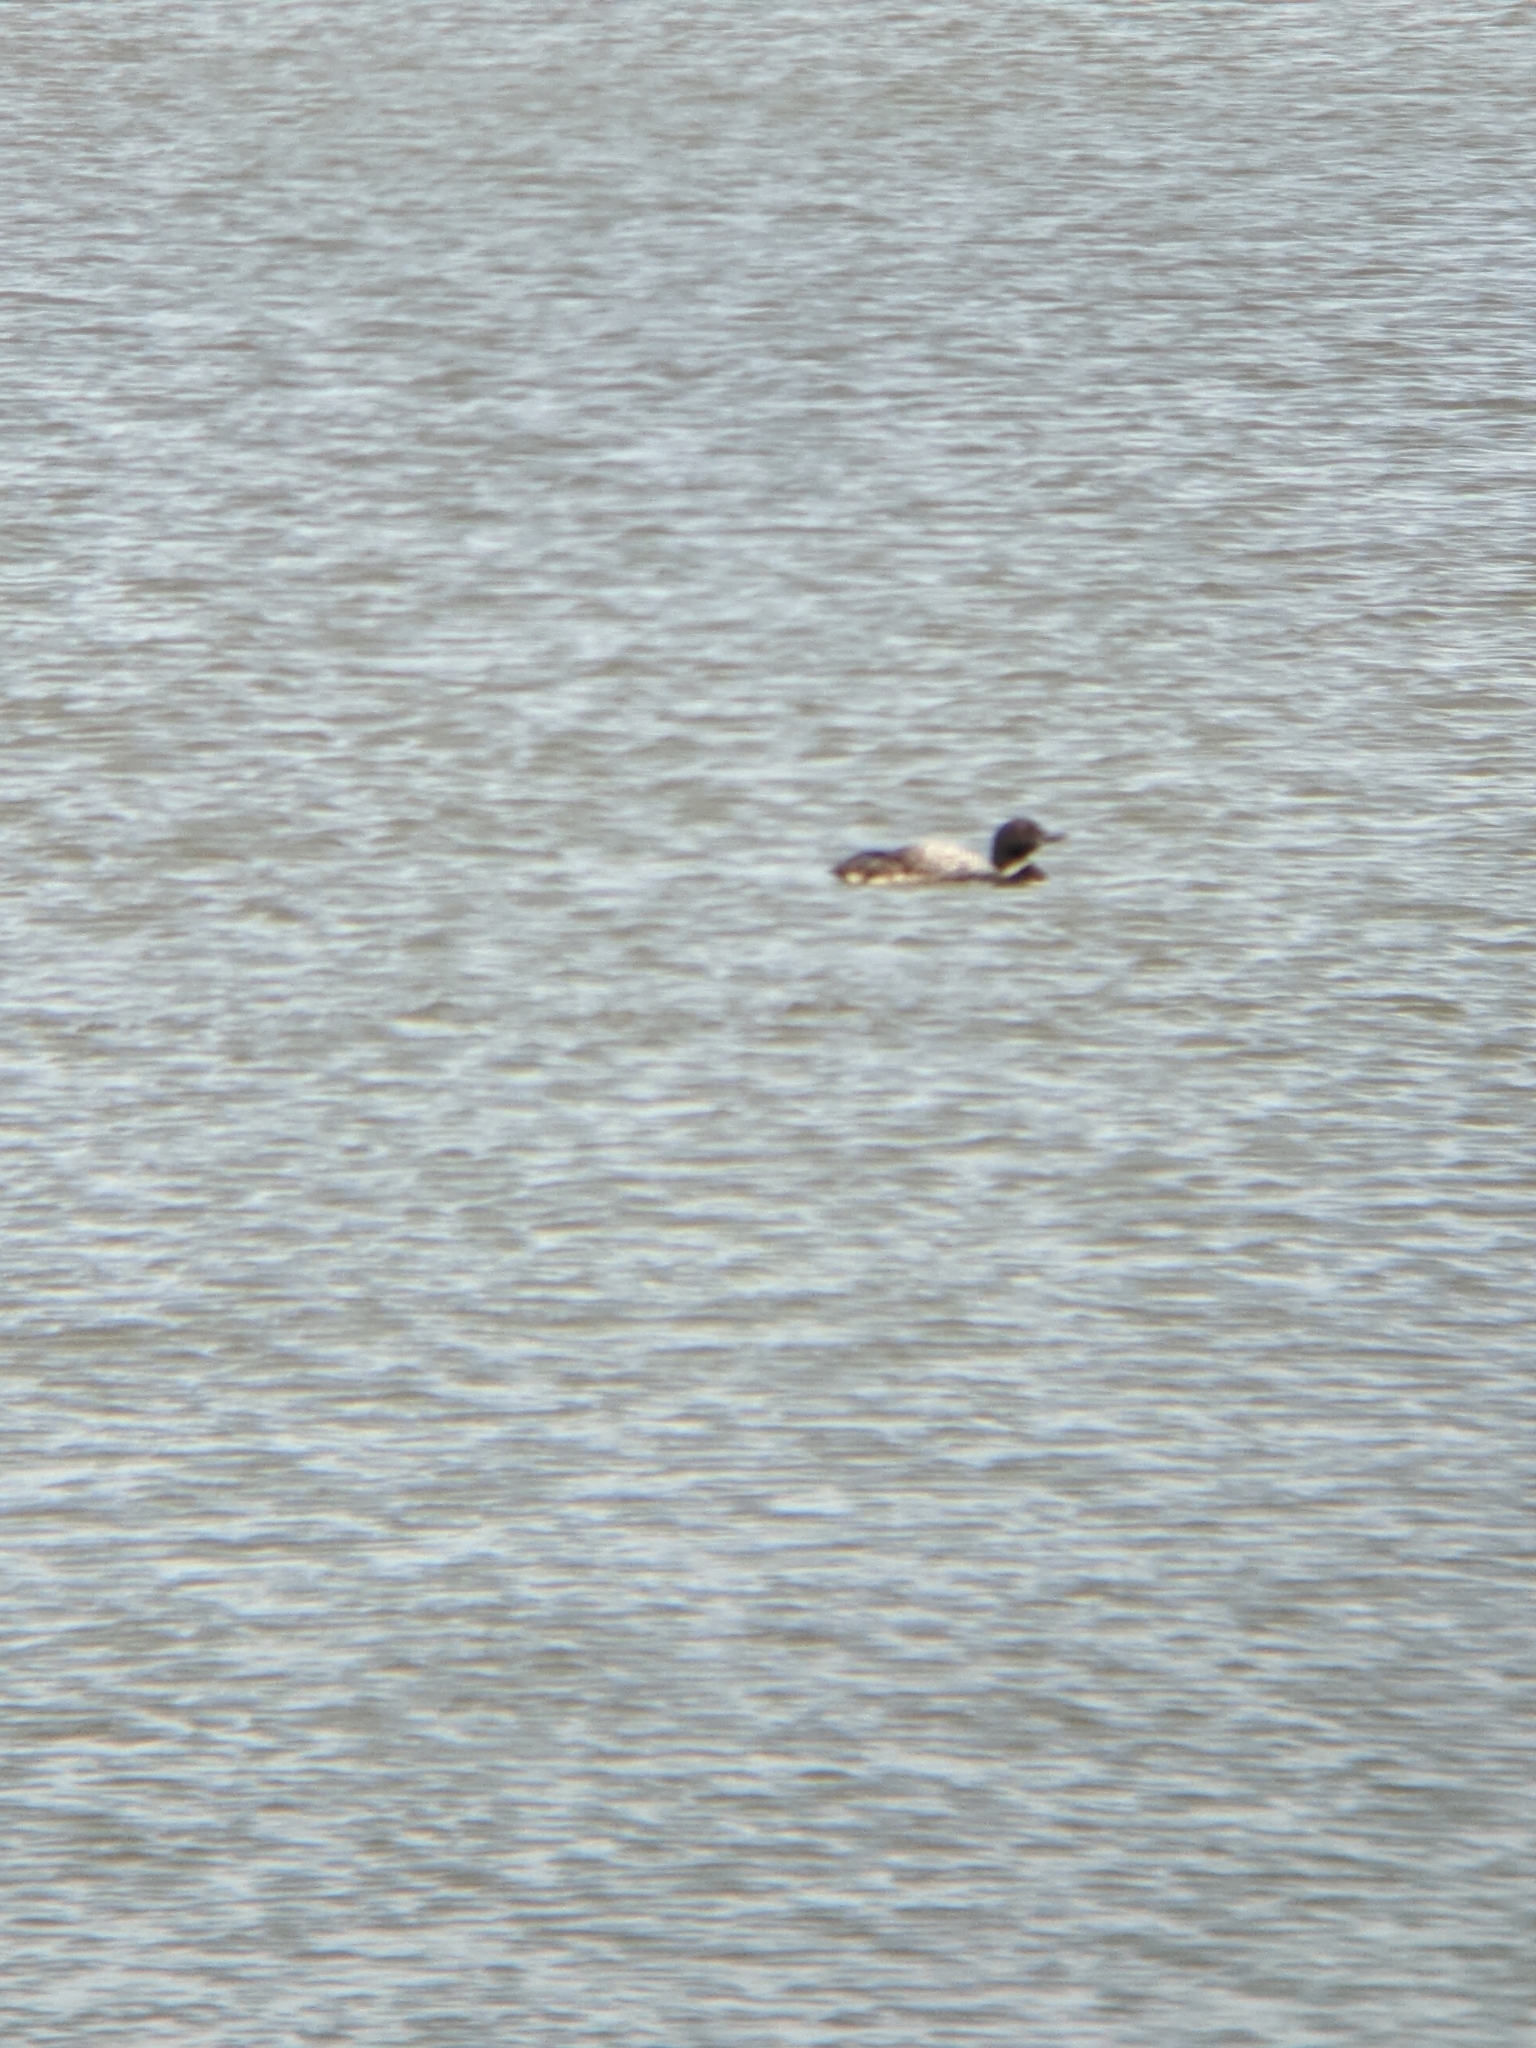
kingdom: Animalia
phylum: Chordata
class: Aves
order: Gaviiformes
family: Gaviidae
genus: Gavia
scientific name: Gavia immer
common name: Common loon
